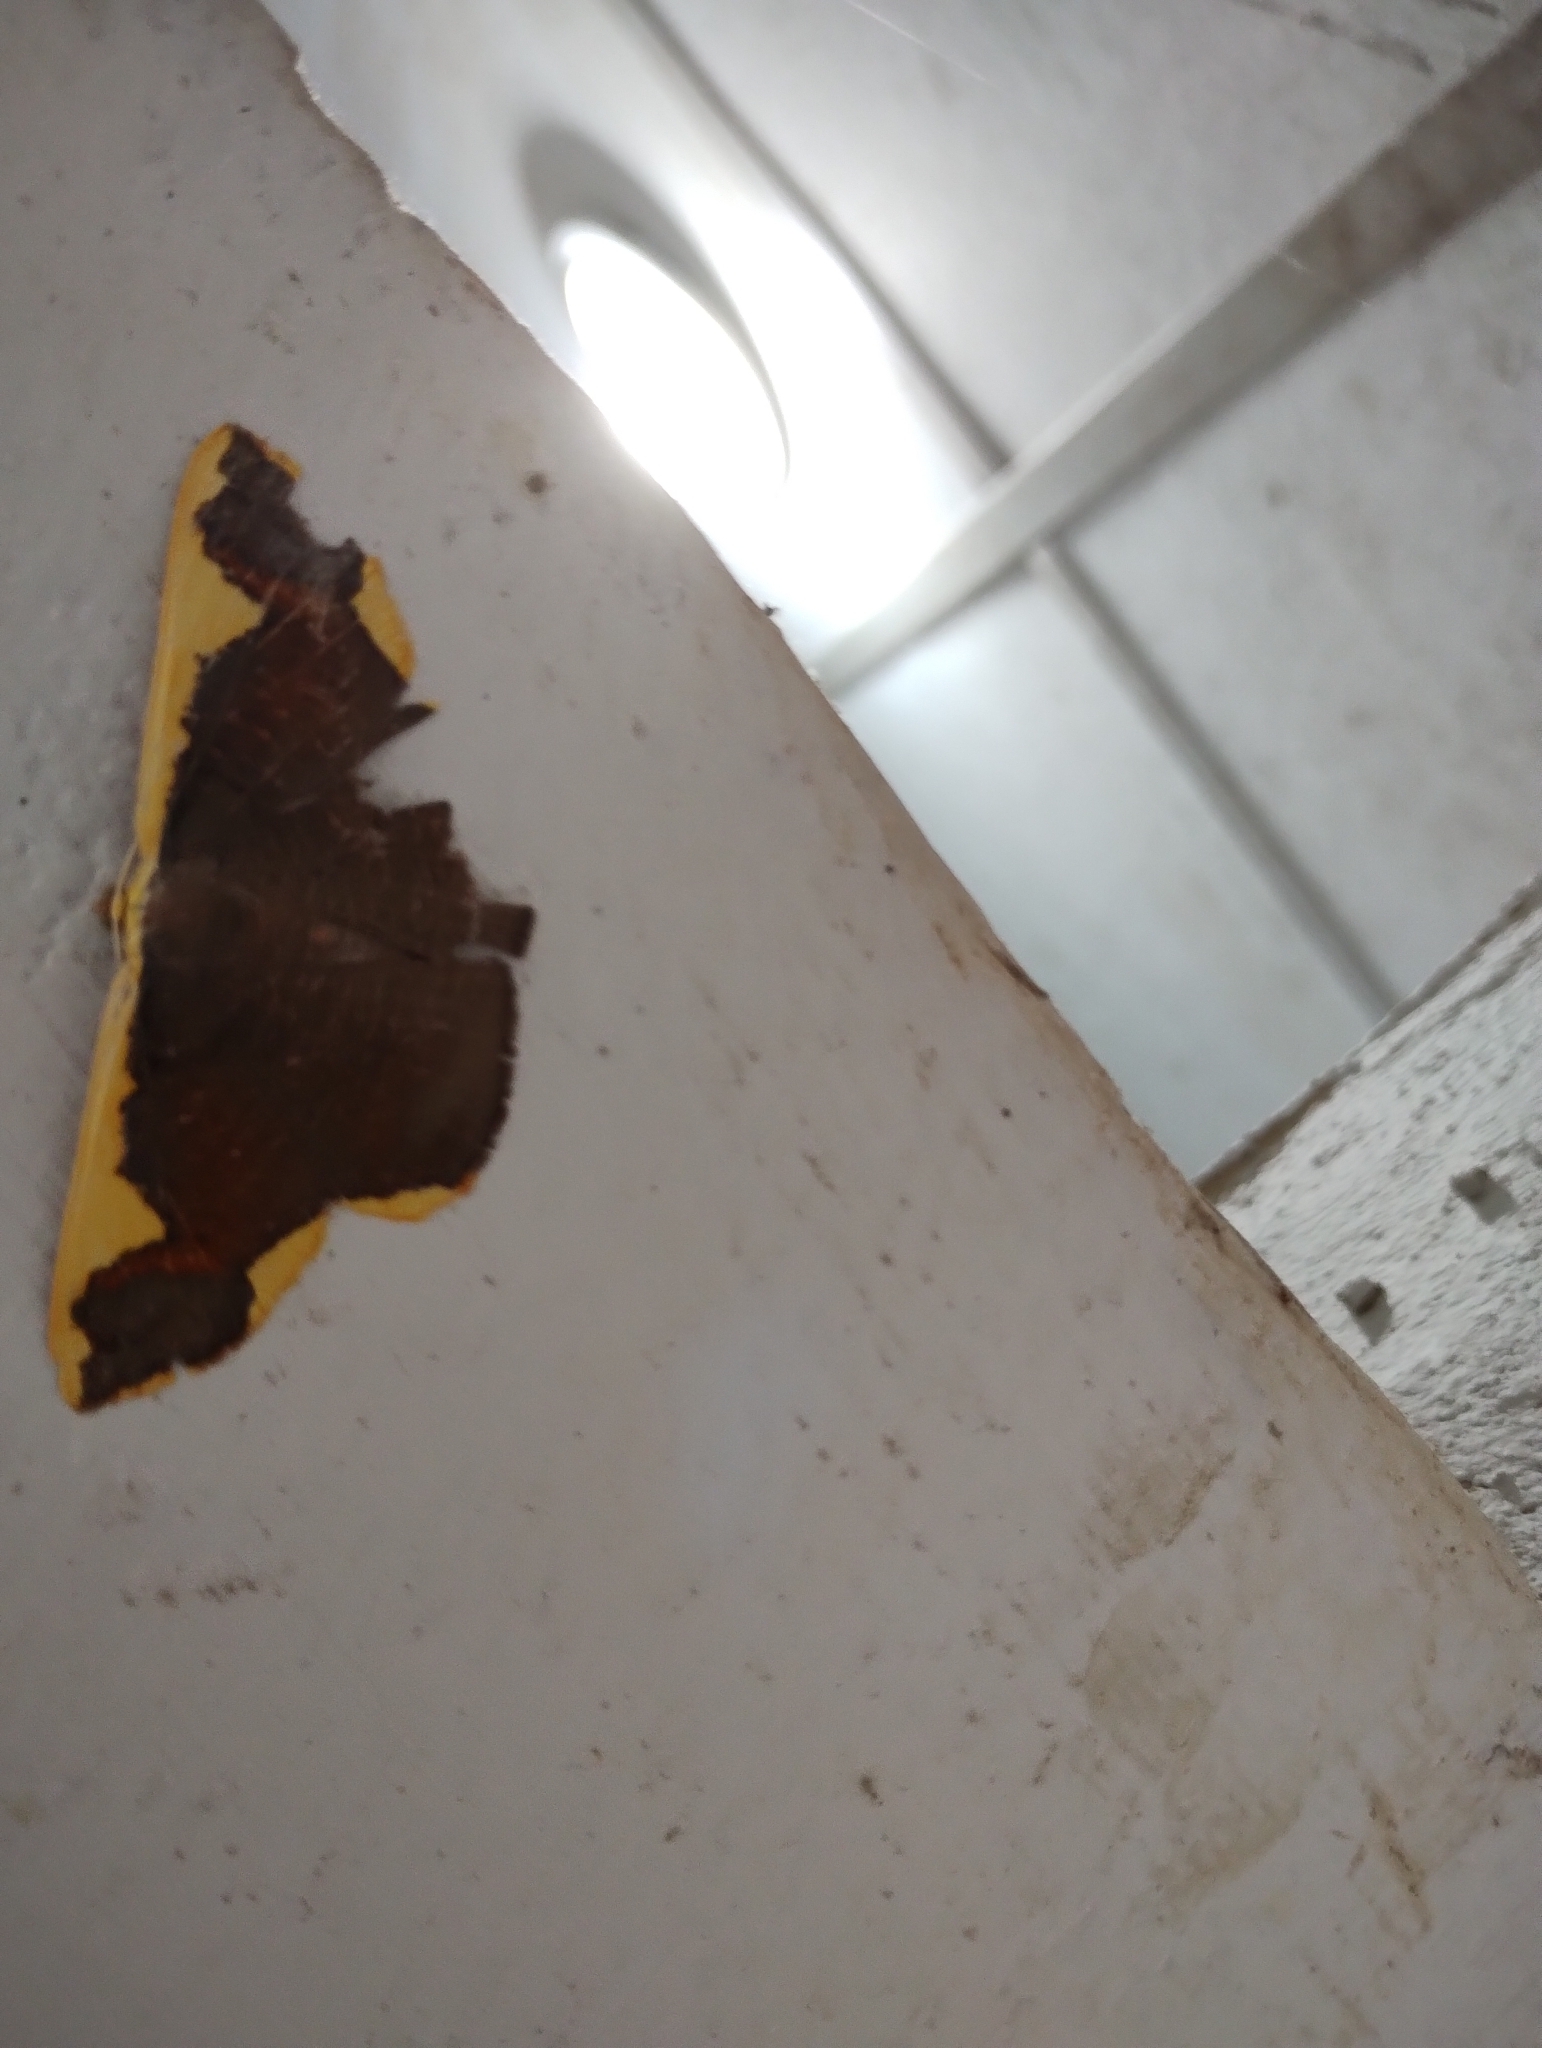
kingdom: Animalia
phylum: Arthropoda
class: Insecta
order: Lepidoptera
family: Geometridae
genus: Plutodes
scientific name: Plutodes costatus
